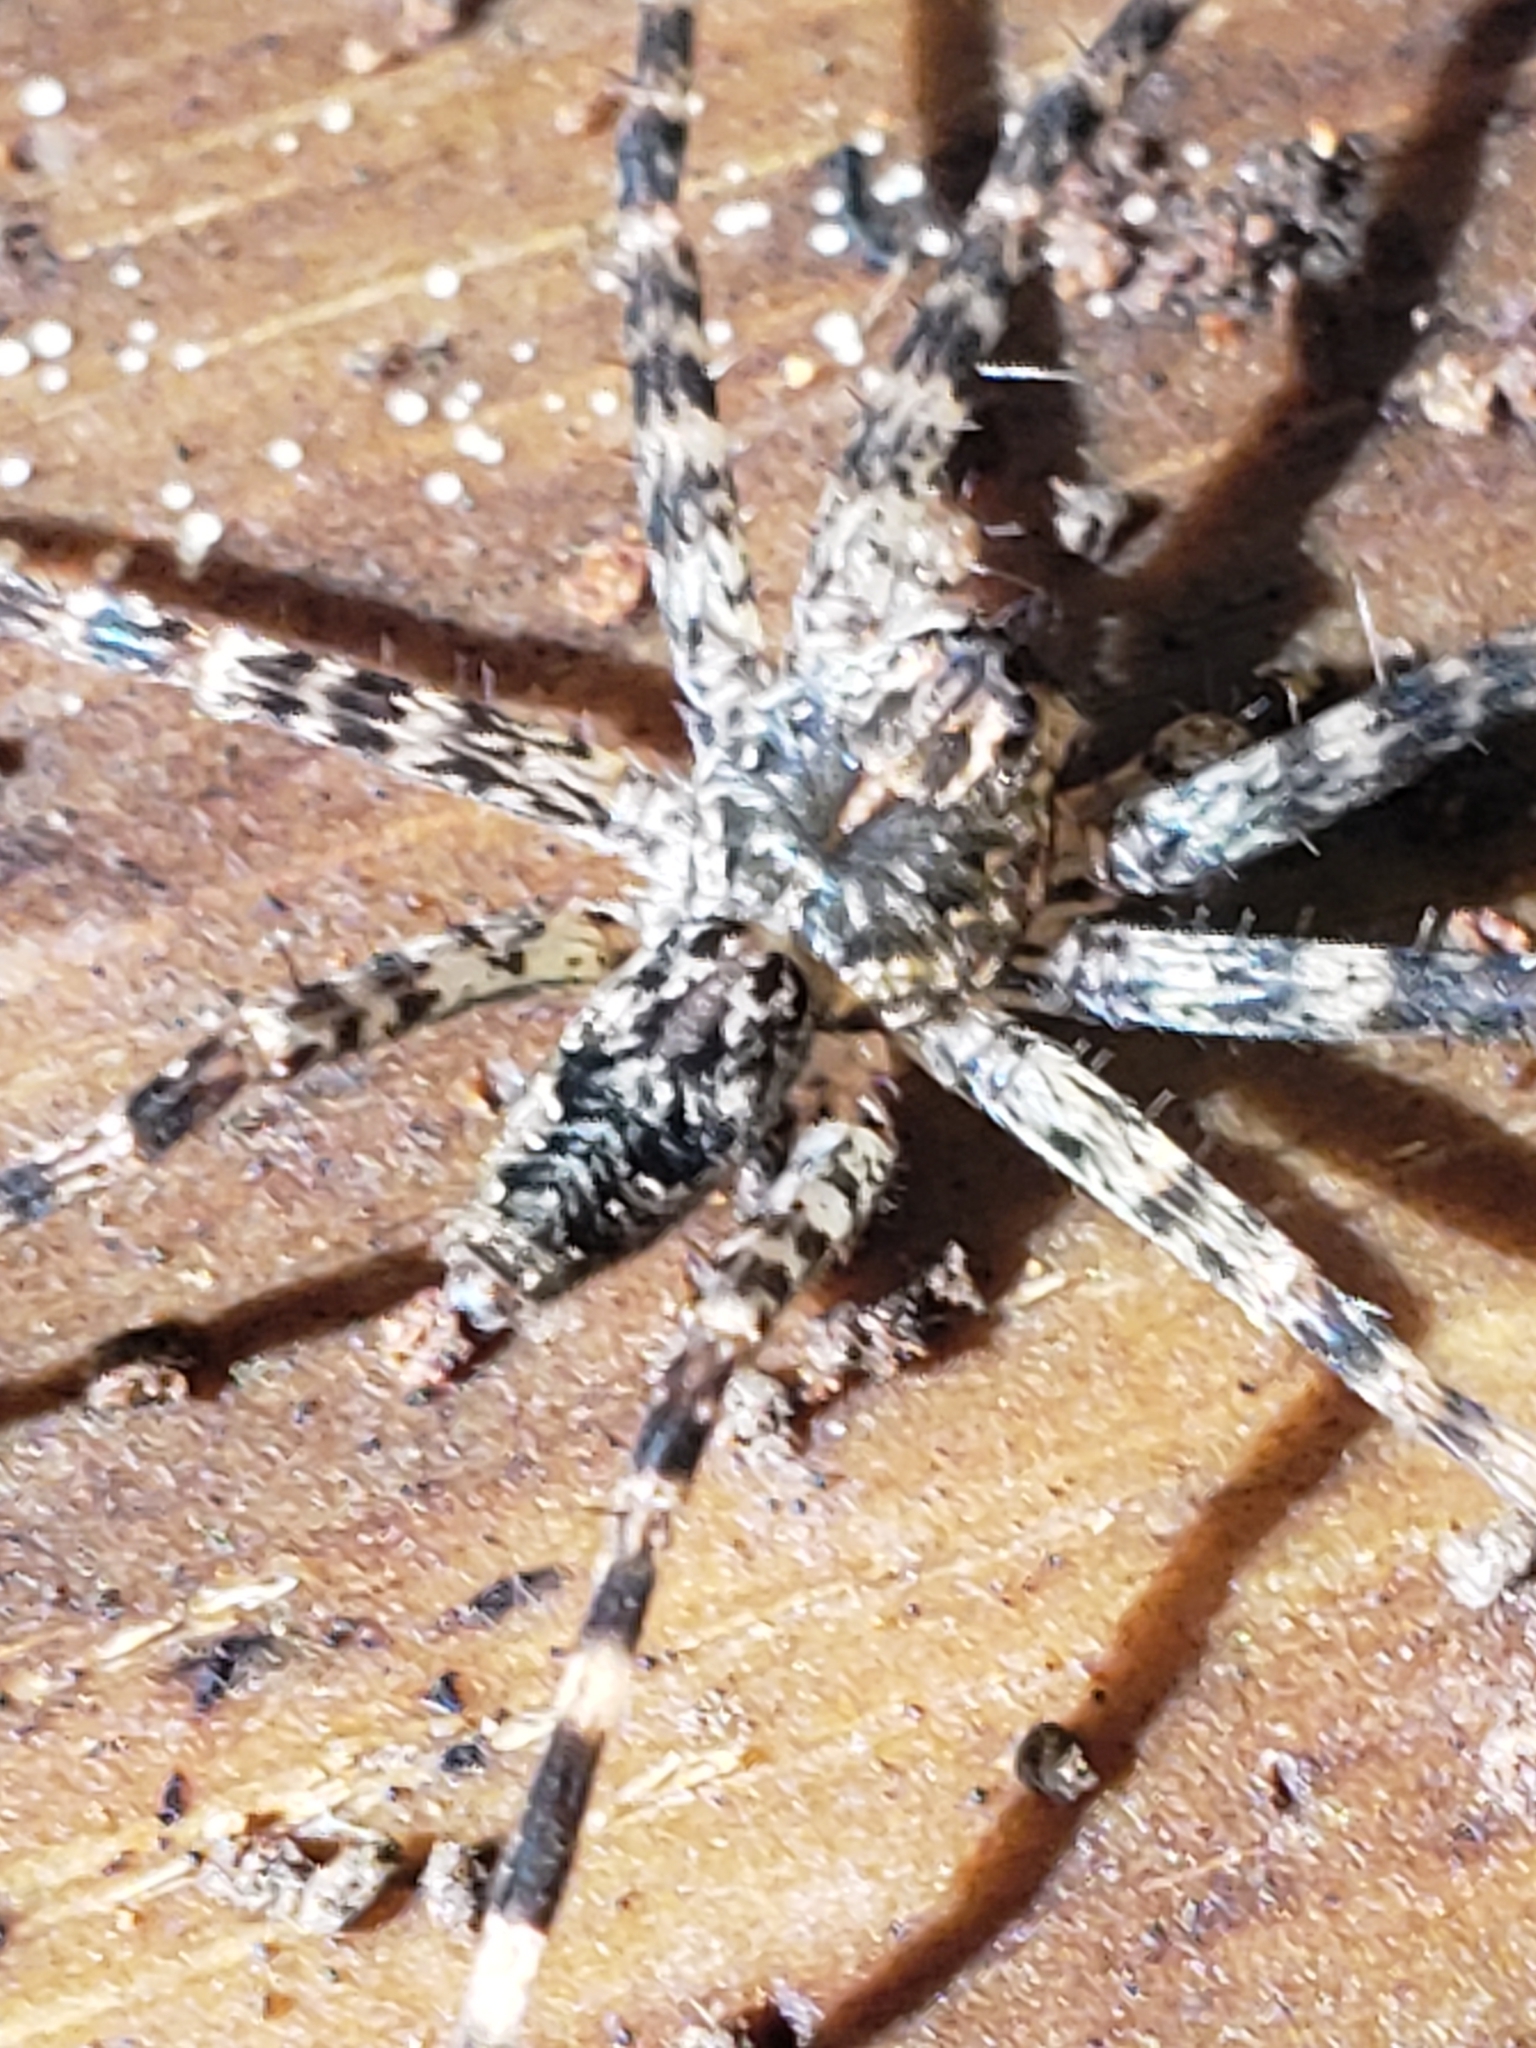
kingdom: Animalia
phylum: Arthropoda
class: Arachnida
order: Araneae
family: Pisauridae
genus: Dolomedes
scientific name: Dolomedes tenebrosus
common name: Dark fishing spider
